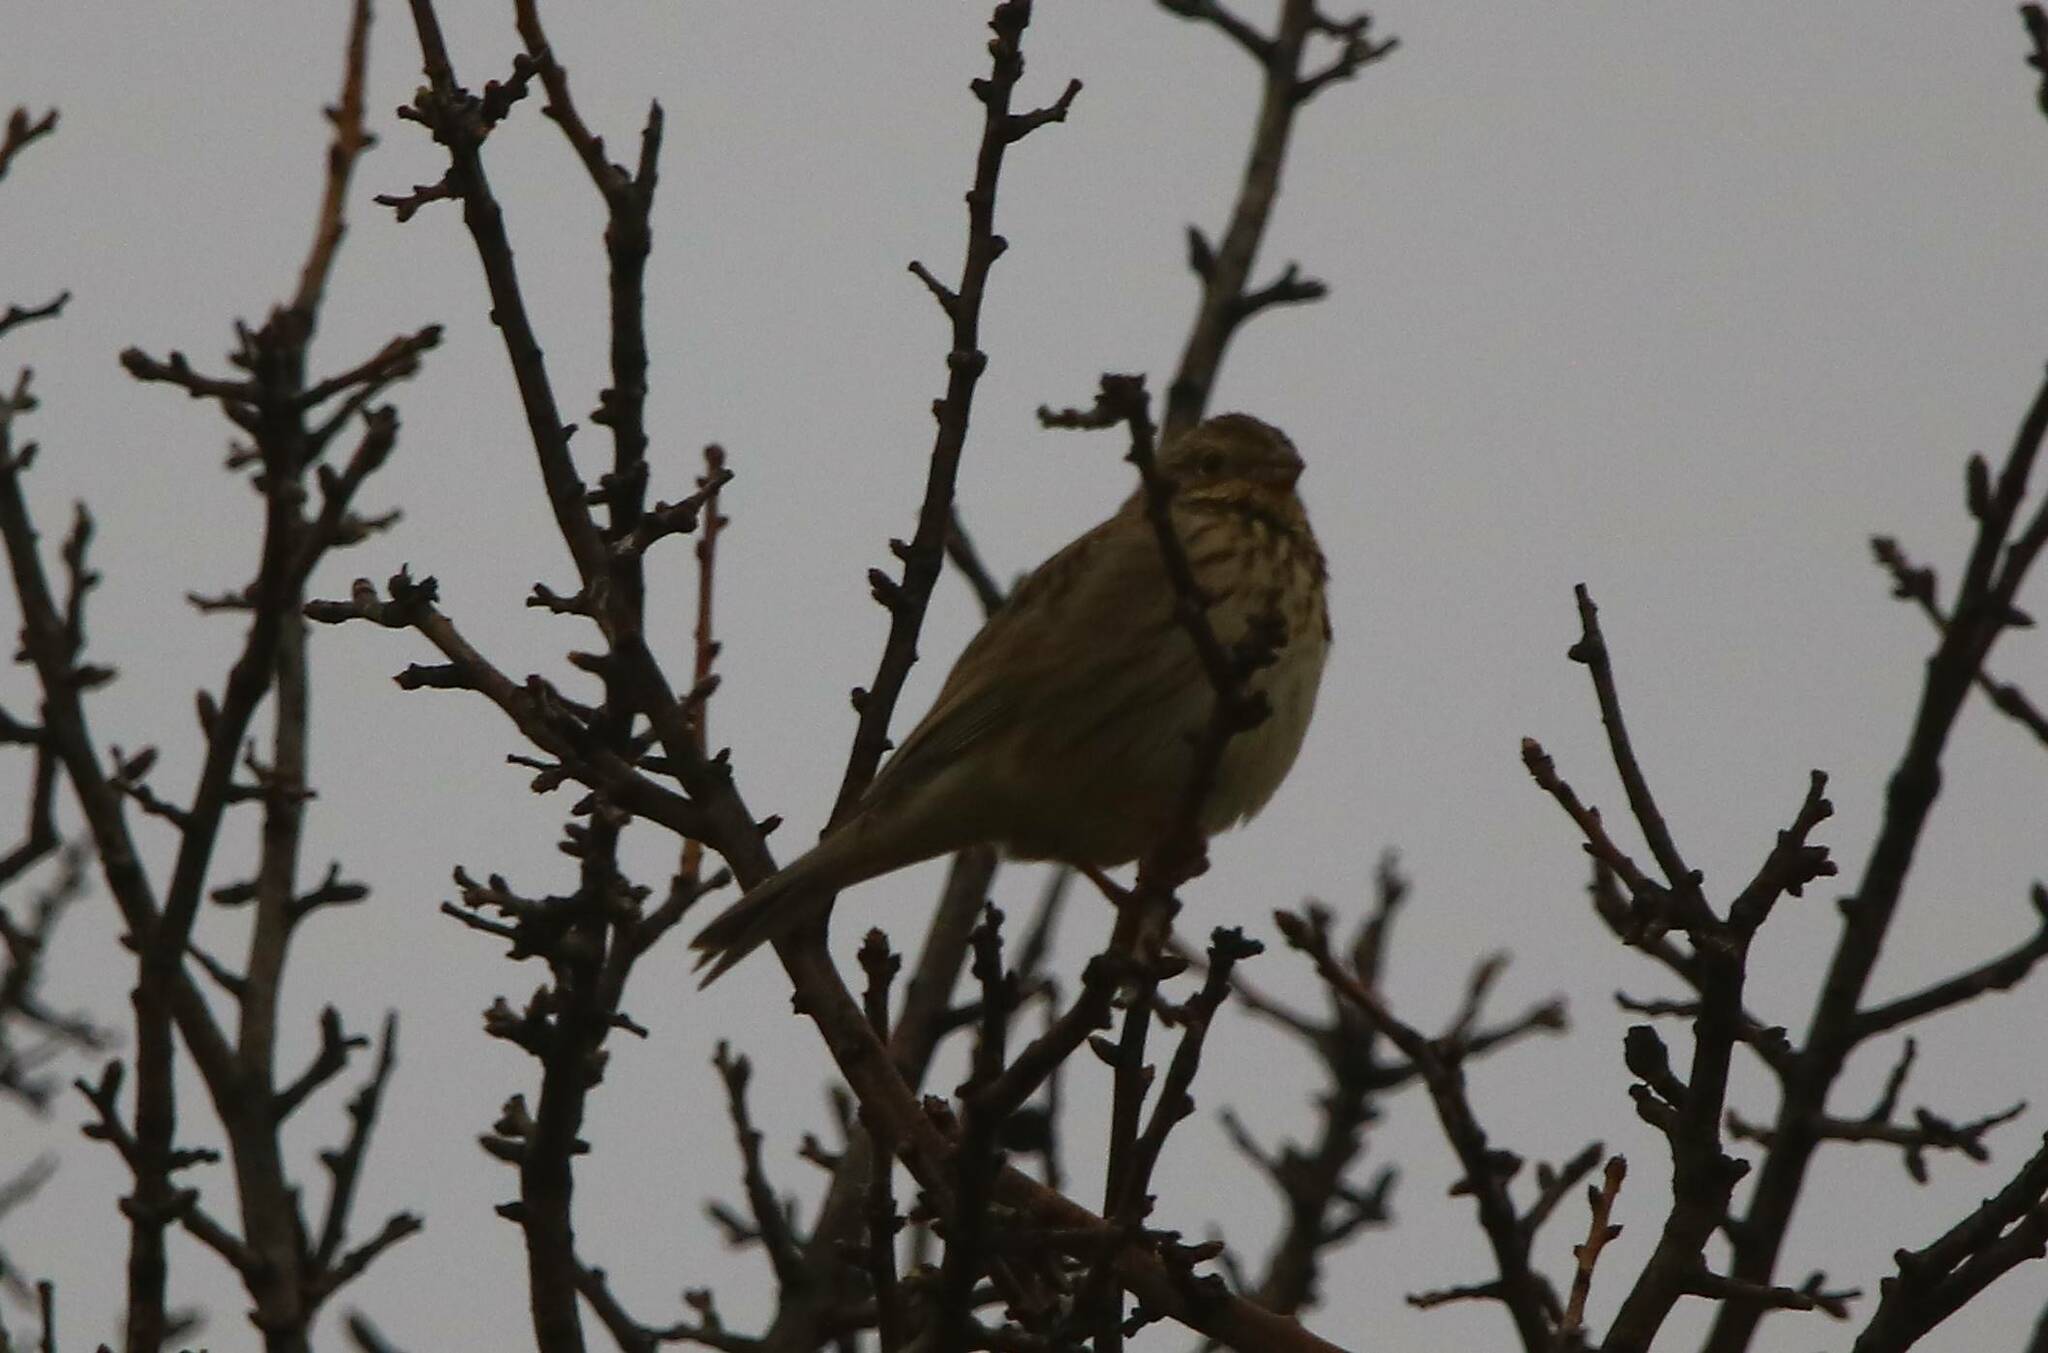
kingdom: Animalia
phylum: Chordata
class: Aves
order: Passeriformes
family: Emberizidae
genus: Emberiza
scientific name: Emberiza cirlus
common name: Cirl bunting
